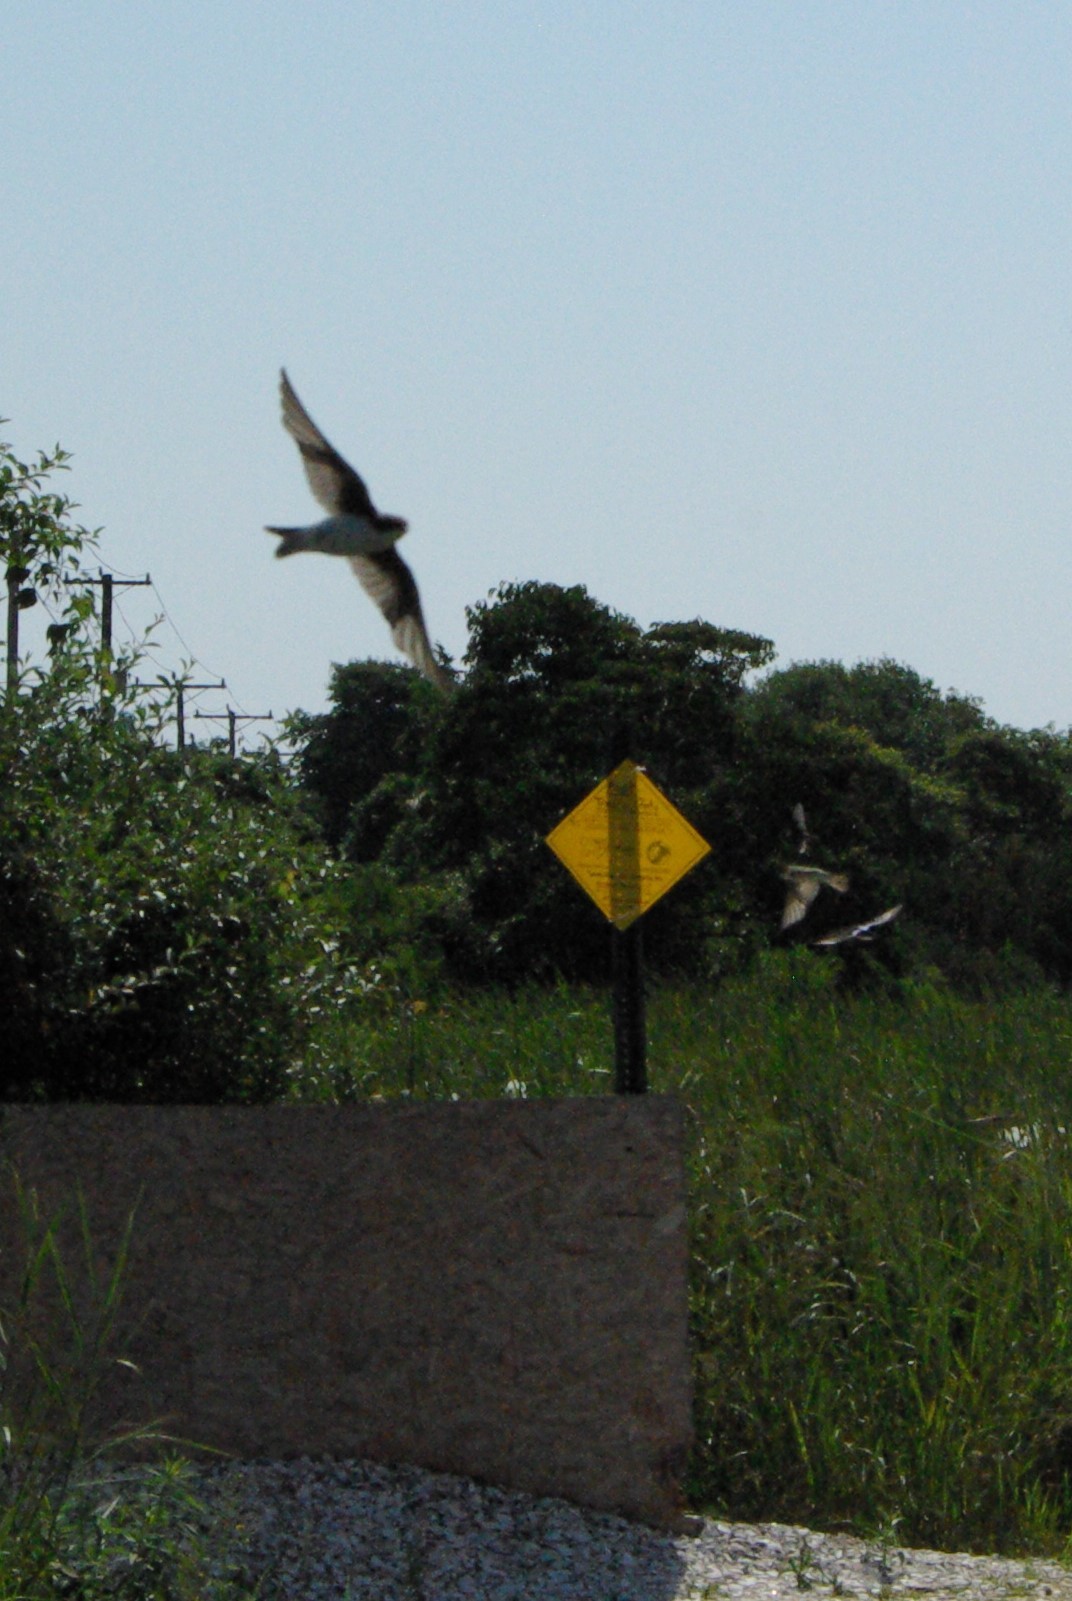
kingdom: Animalia
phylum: Chordata
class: Aves
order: Passeriformes
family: Hirundinidae
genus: Tachycineta
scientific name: Tachycineta bicolor
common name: Tree swallow
